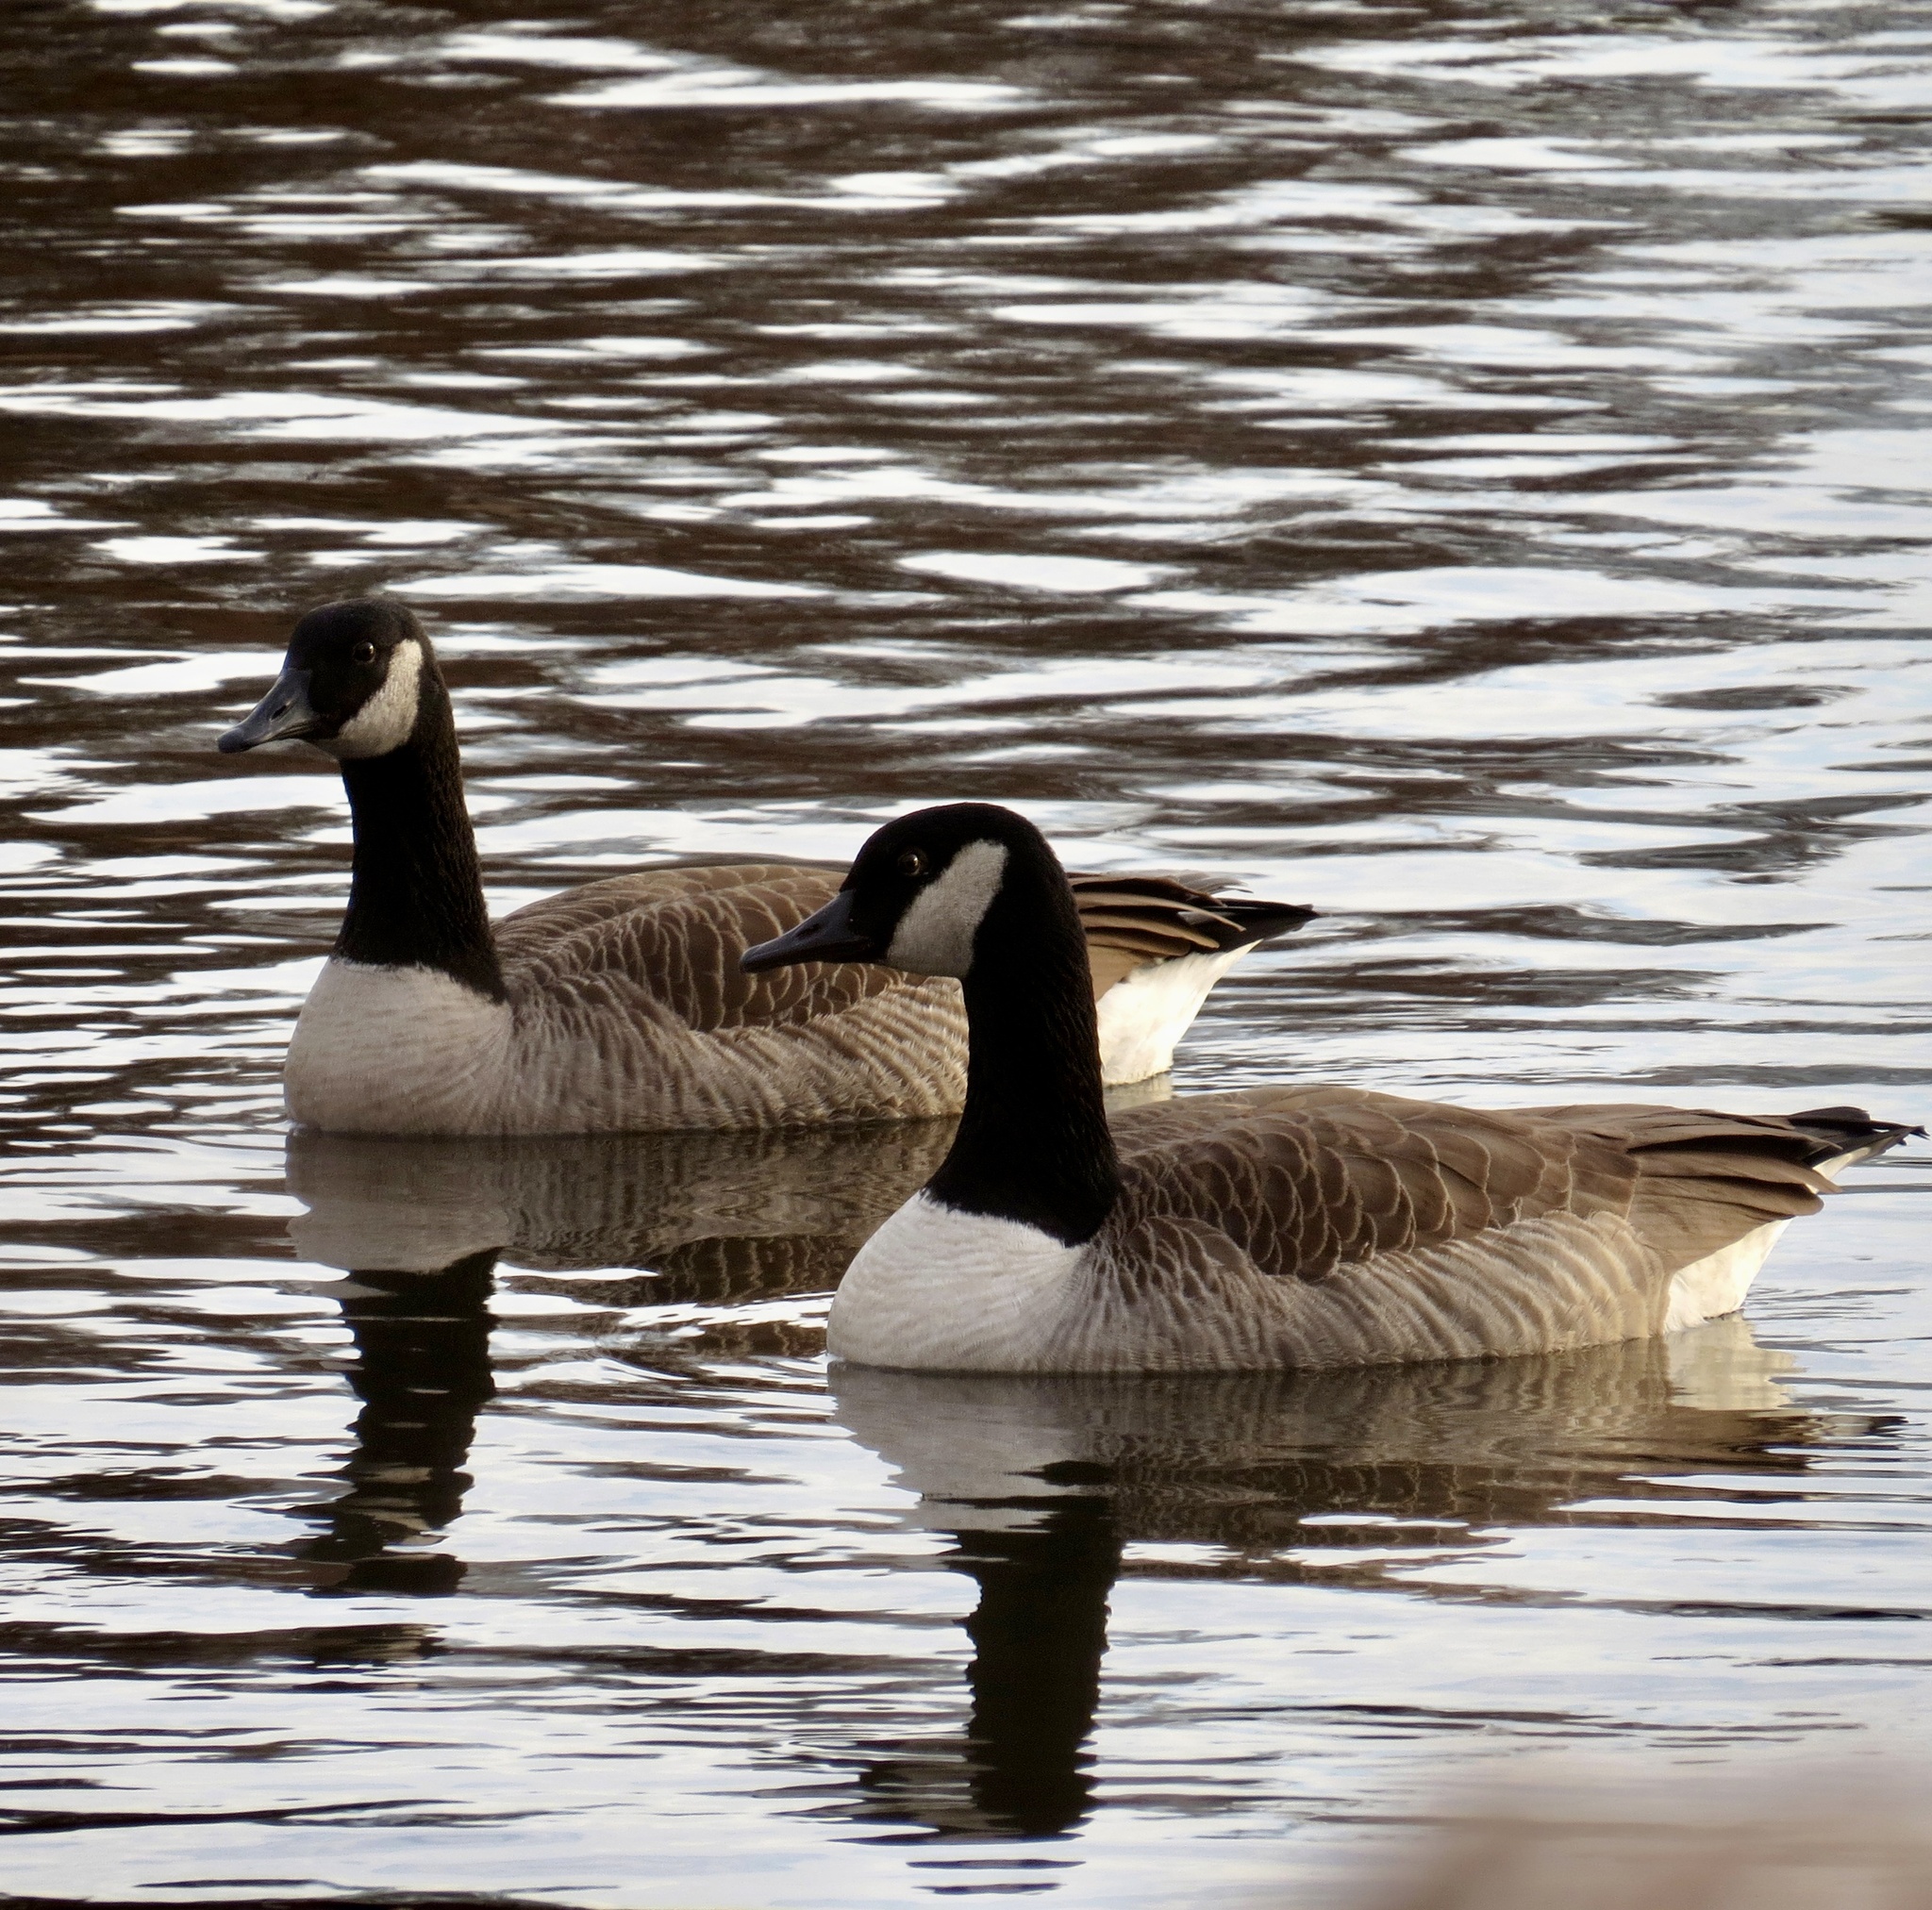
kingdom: Animalia
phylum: Chordata
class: Aves
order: Anseriformes
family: Anatidae
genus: Branta
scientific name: Branta canadensis
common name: Canada goose
